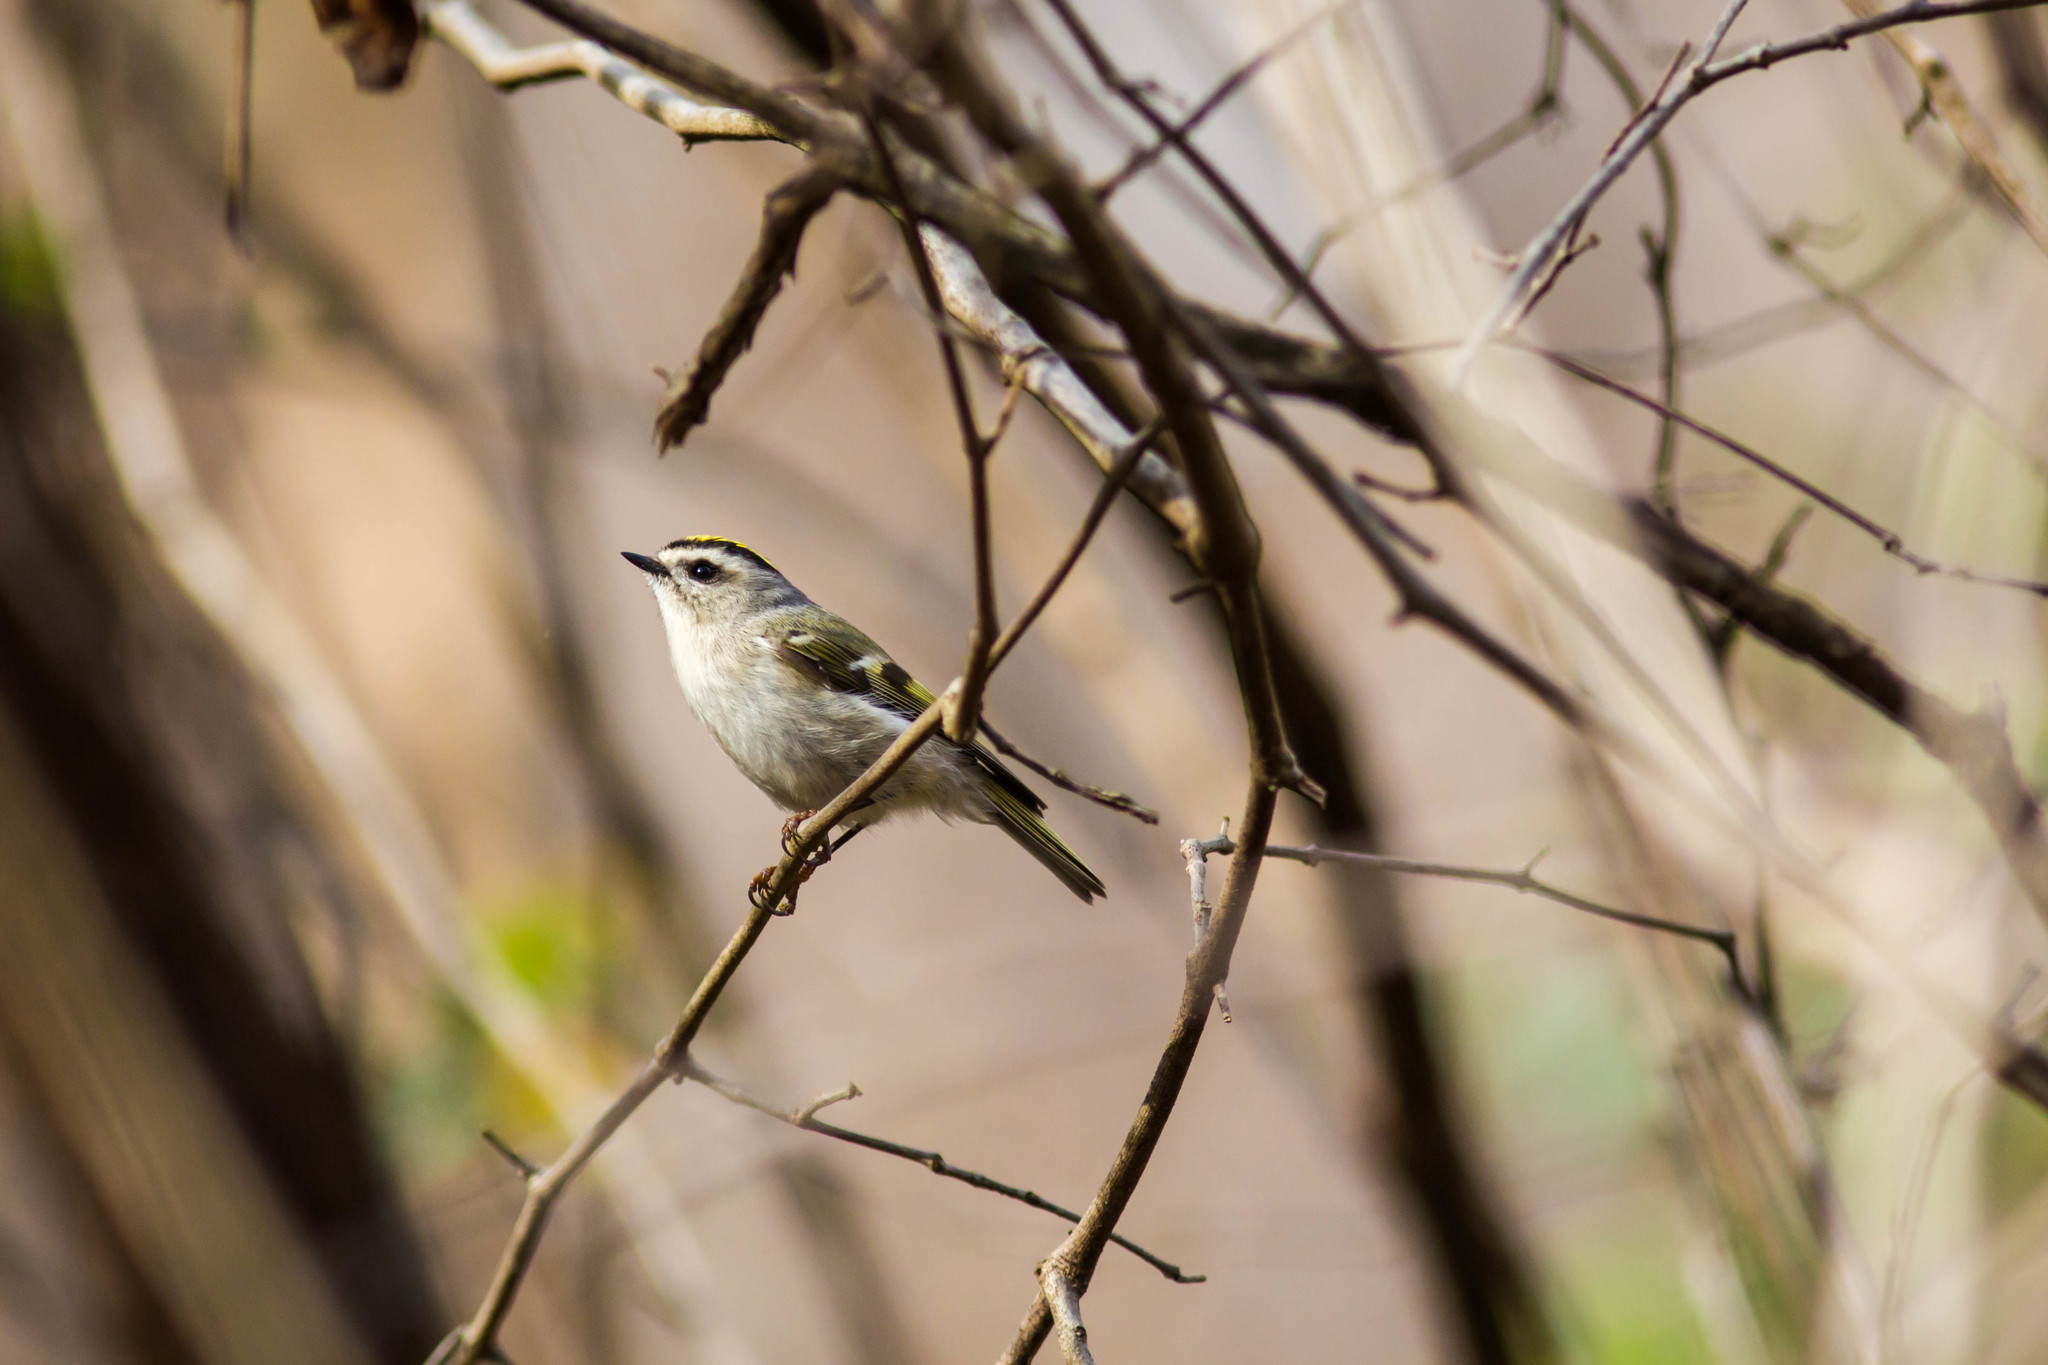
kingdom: Animalia
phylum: Chordata
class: Aves
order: Passeriformes
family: Regulidae
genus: Regulus
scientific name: Regulus satrapa
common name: Golden-crowned kinglet
